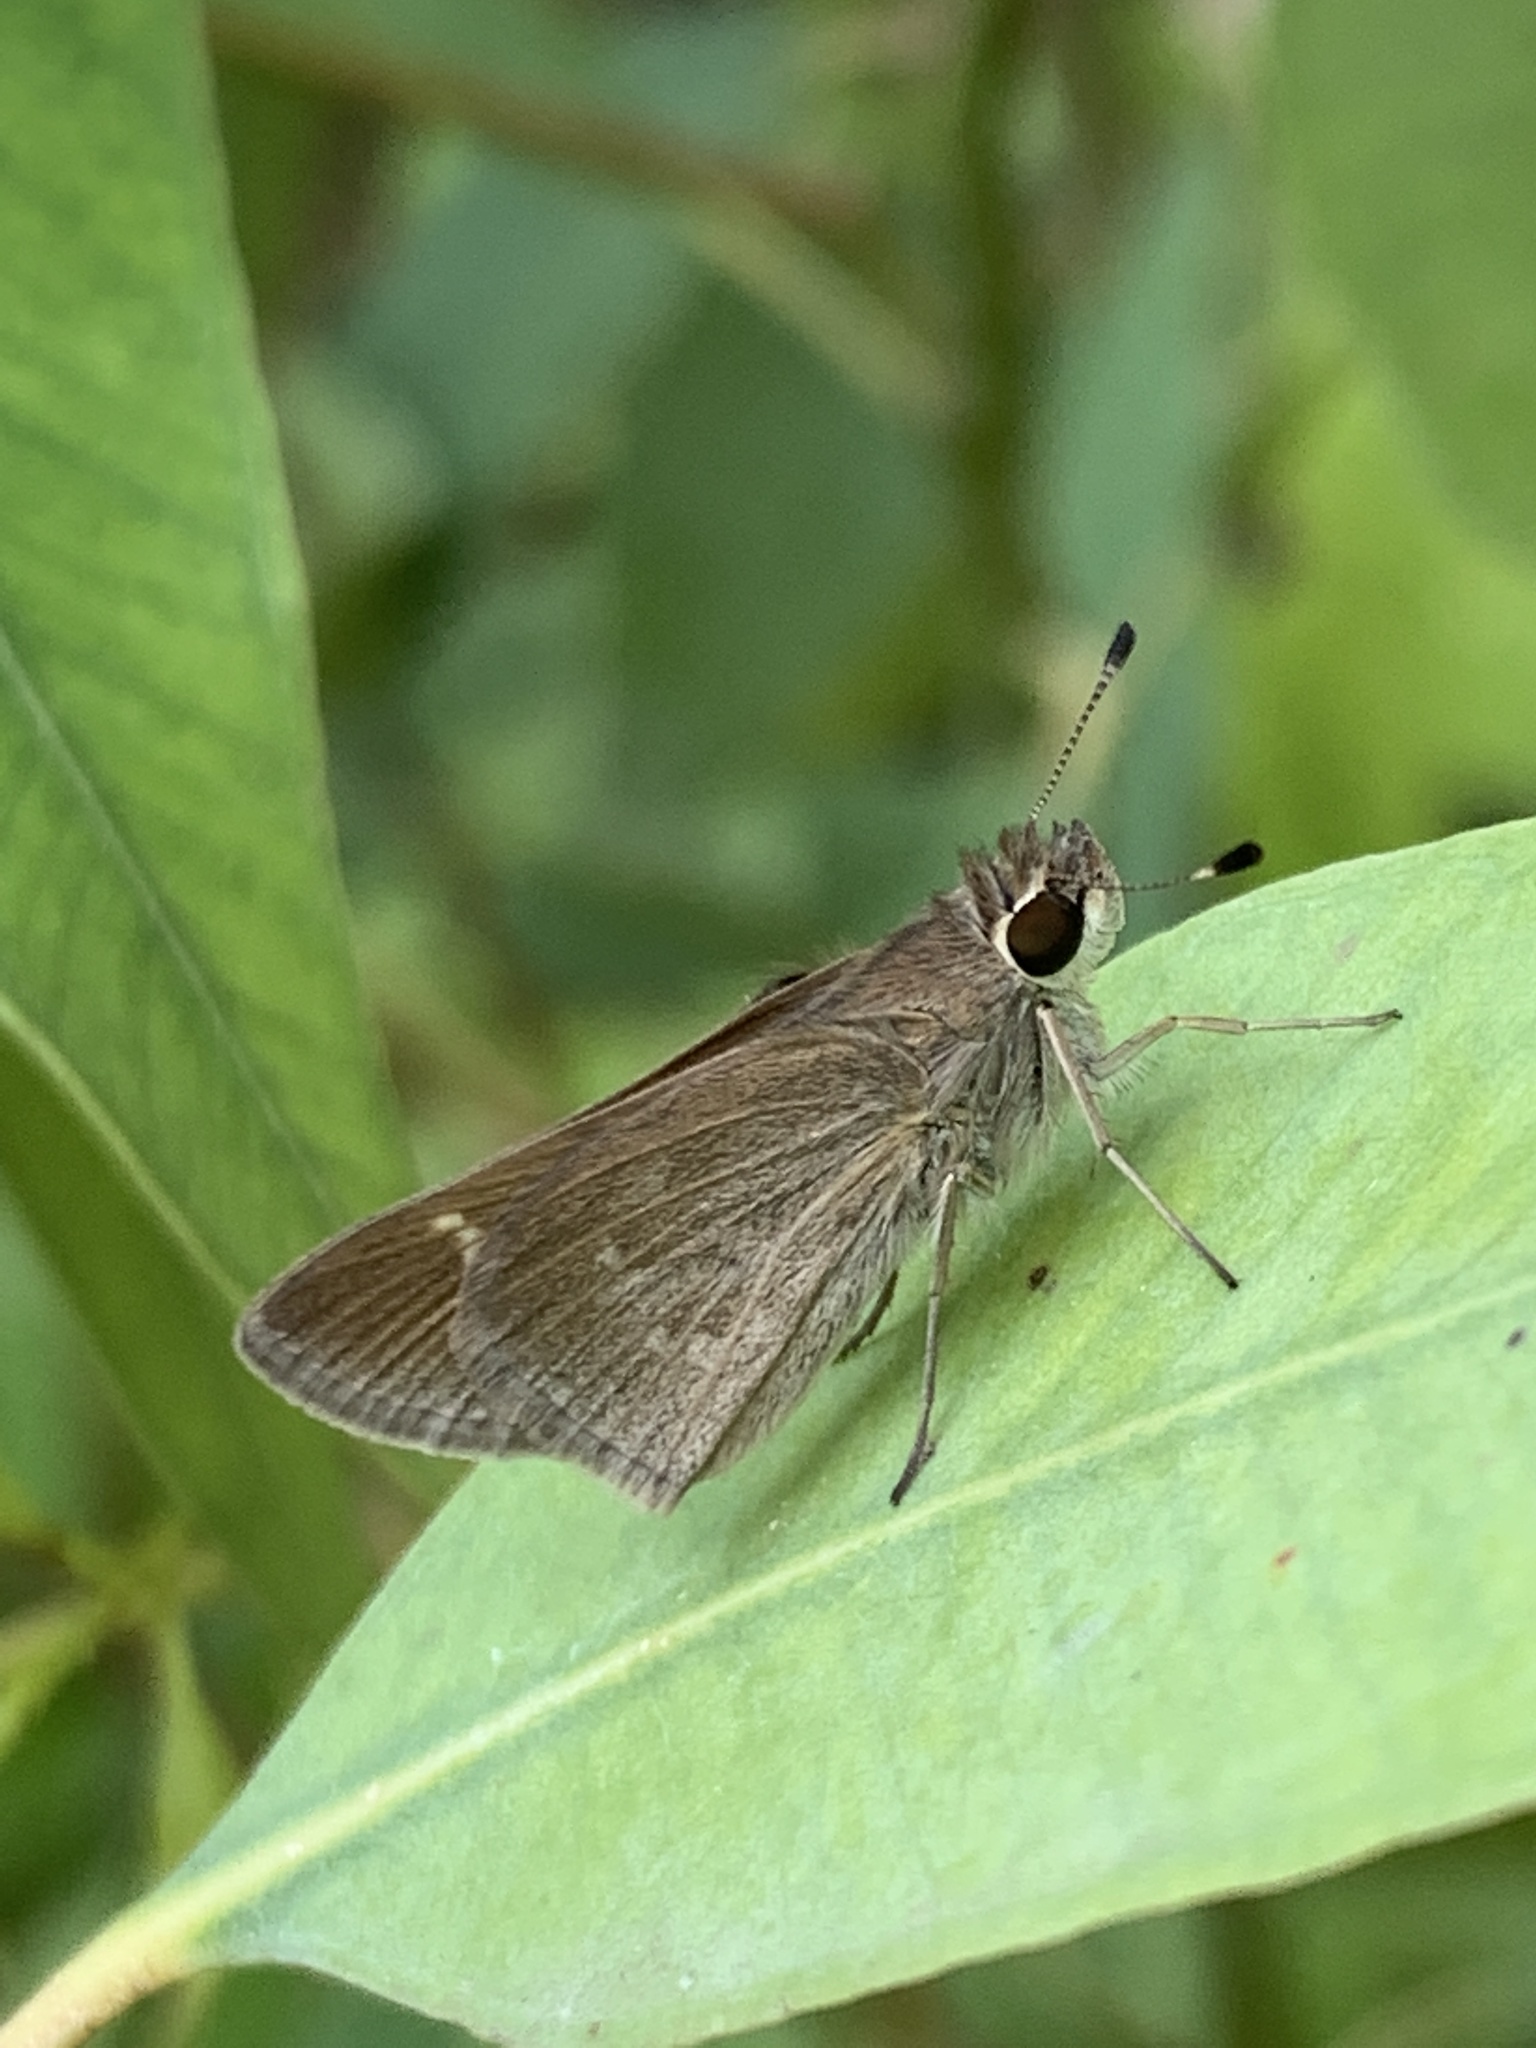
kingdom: Animalia
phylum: Arthropoda
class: Insecta
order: Lepidoptera
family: Hesperiidae
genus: Lerodea
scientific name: Lerodea eufala
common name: Eufala skipper
